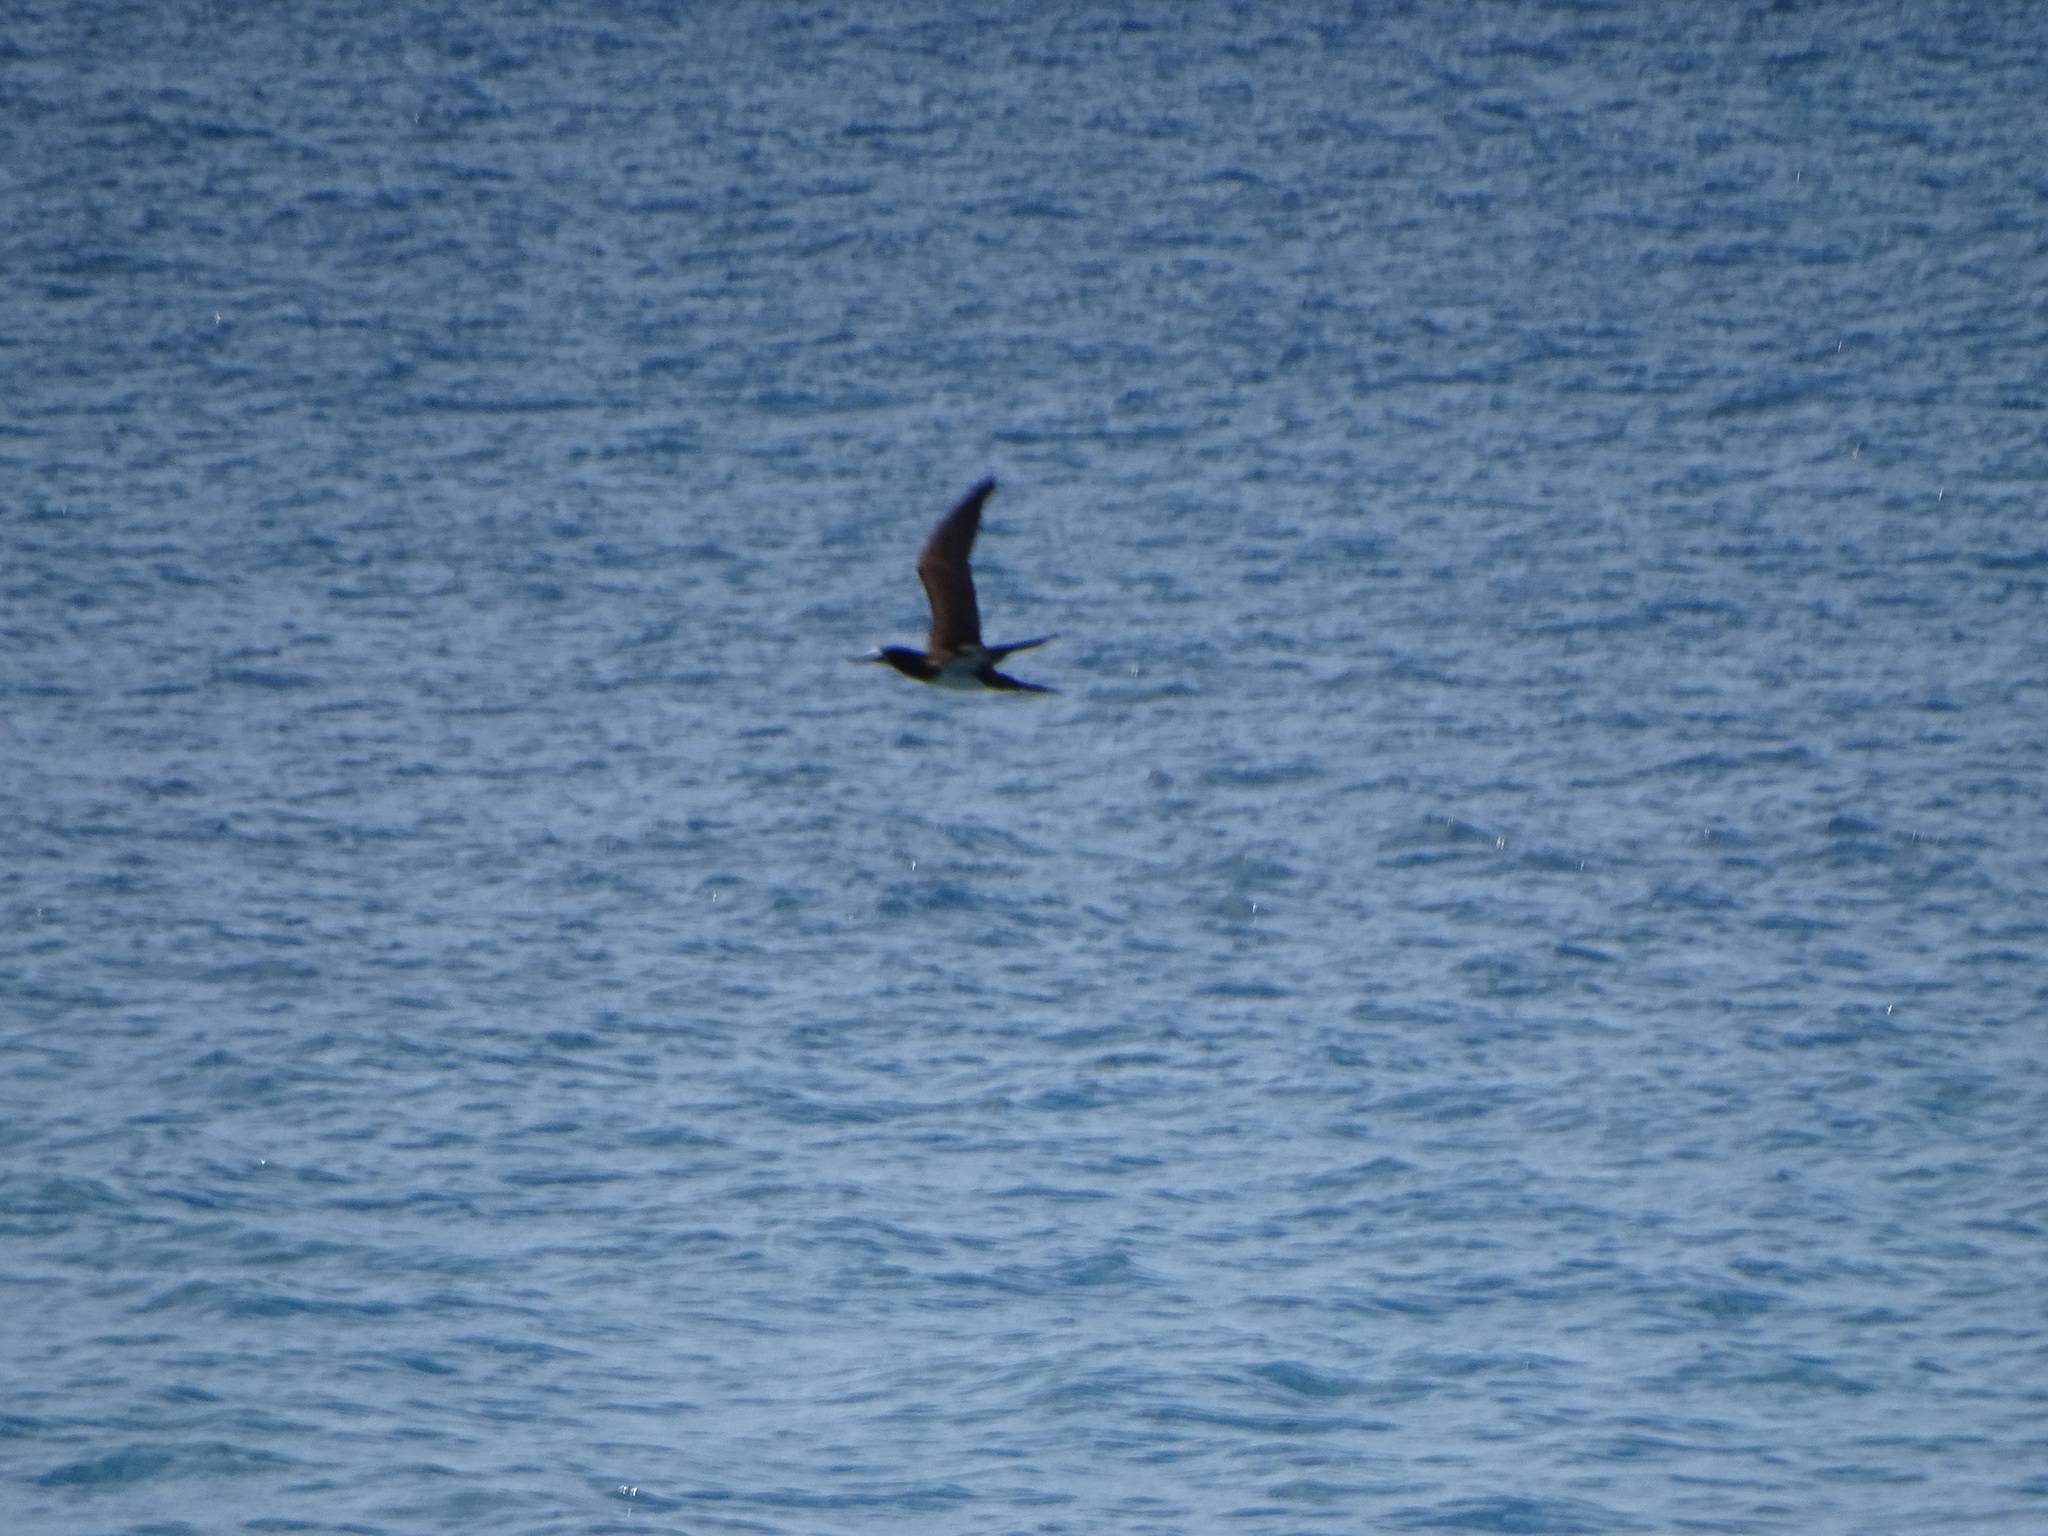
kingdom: Animalia
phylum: Chordata
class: Aves
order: Suliformes
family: Sulidae
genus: Sula
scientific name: Sula leucogaster
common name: Brown booby
